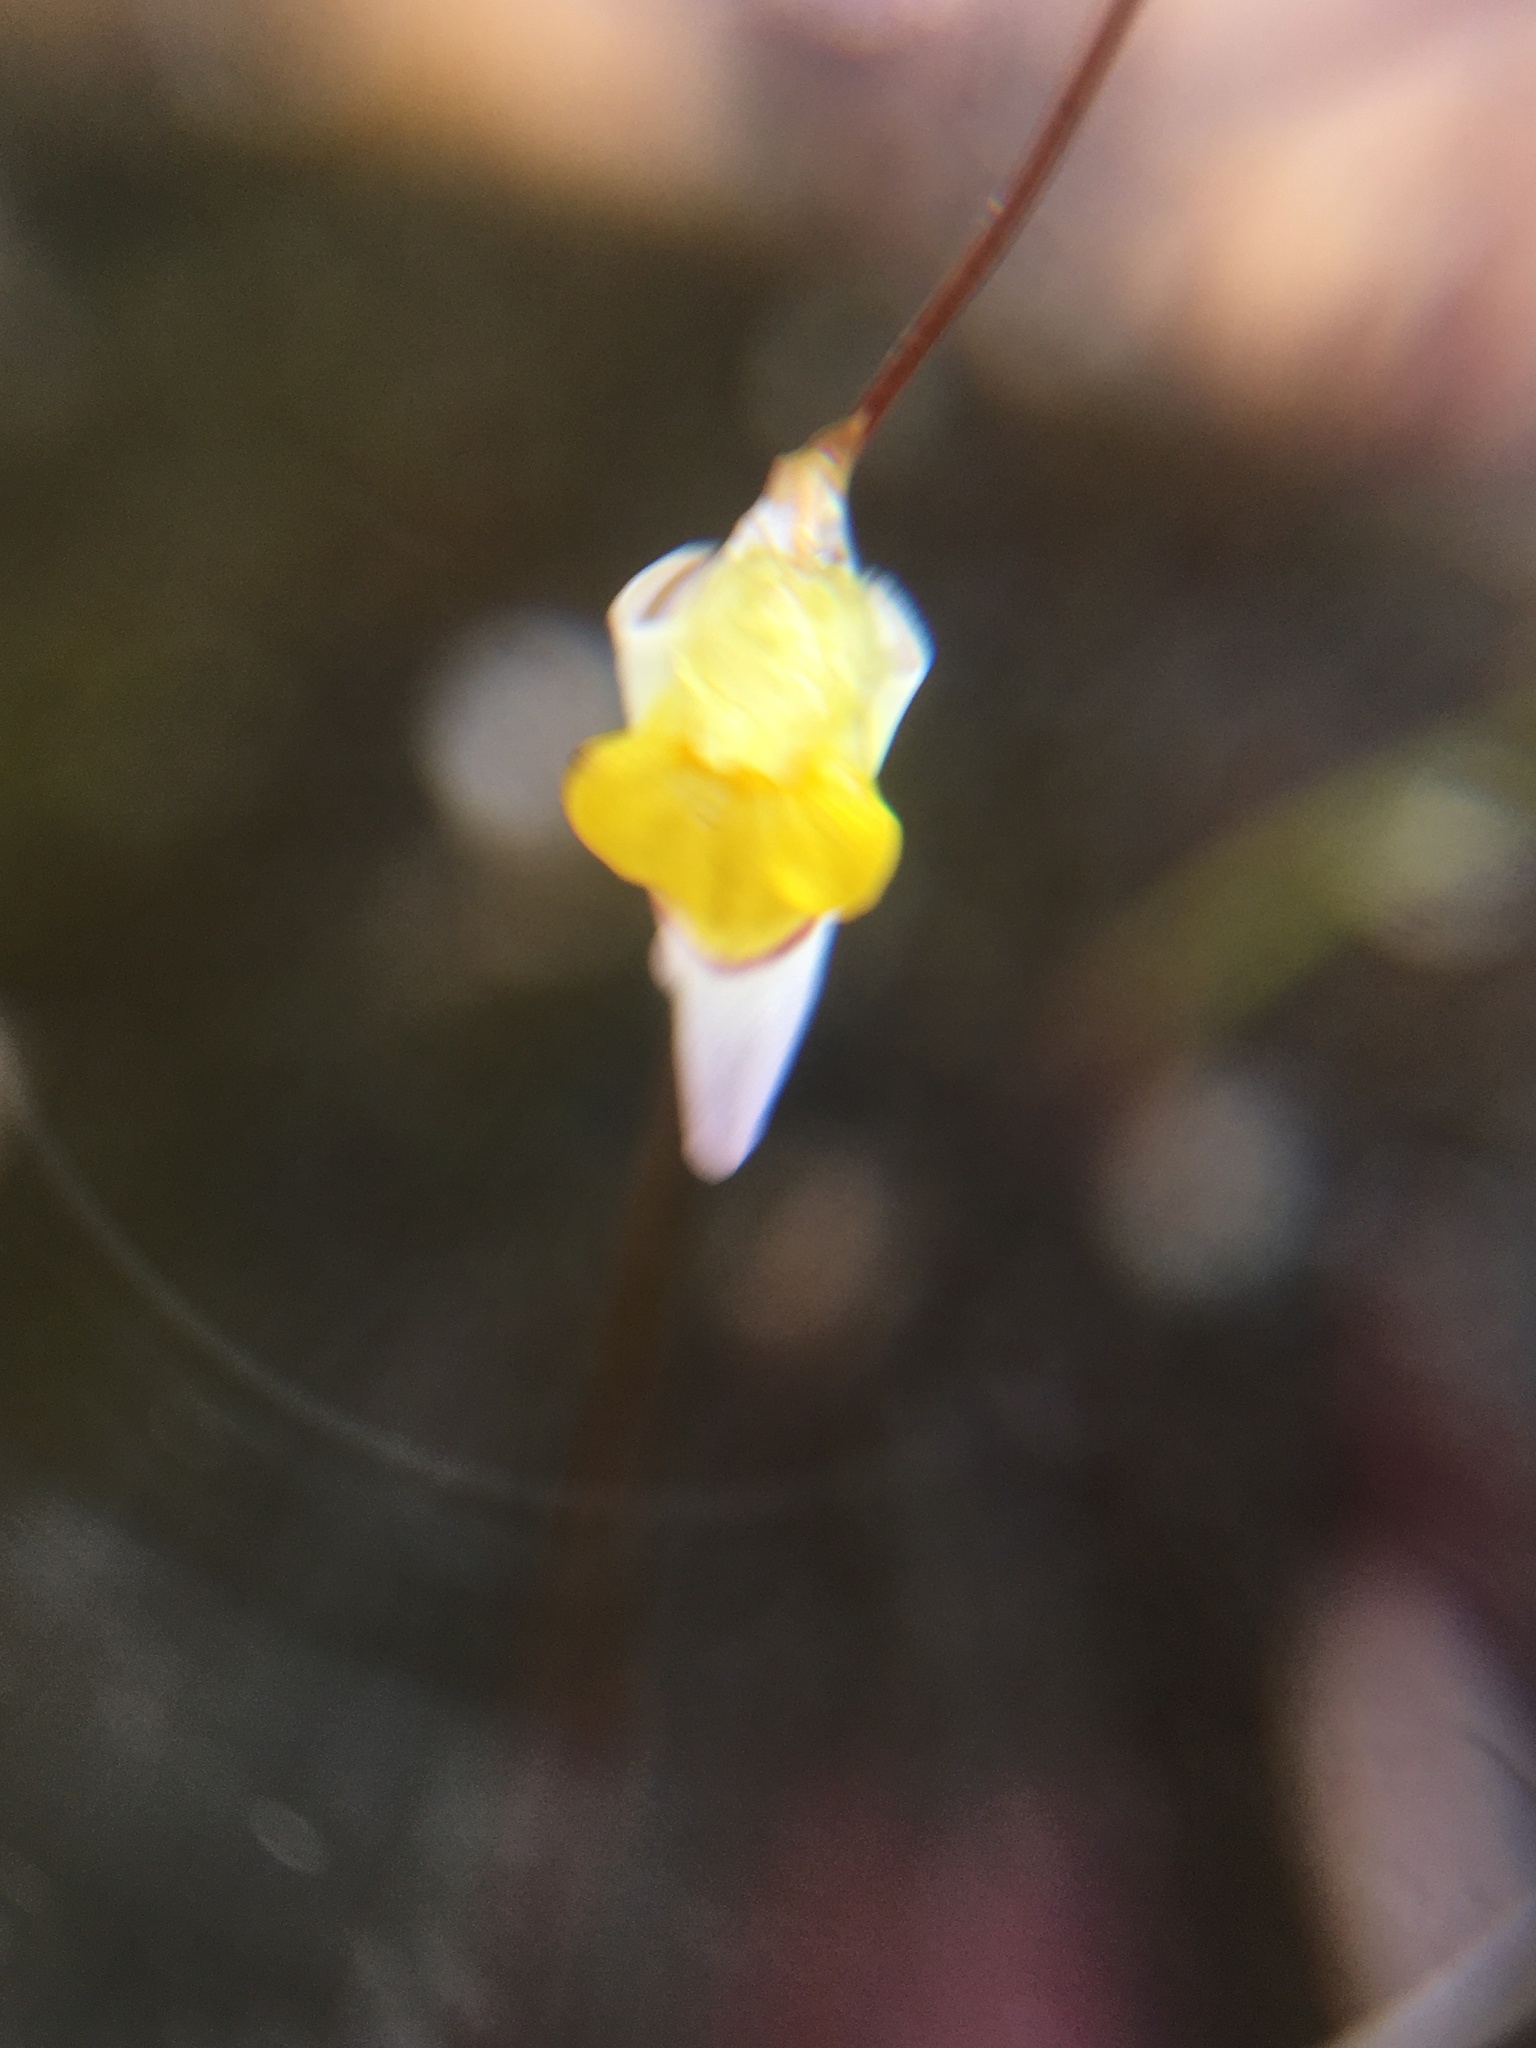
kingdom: Plantae
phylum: Tracheophyta
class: Magnoliopsida
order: Lamiales
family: Lentibulariaceae
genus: Utricularia
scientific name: Utricularia bisquamata
